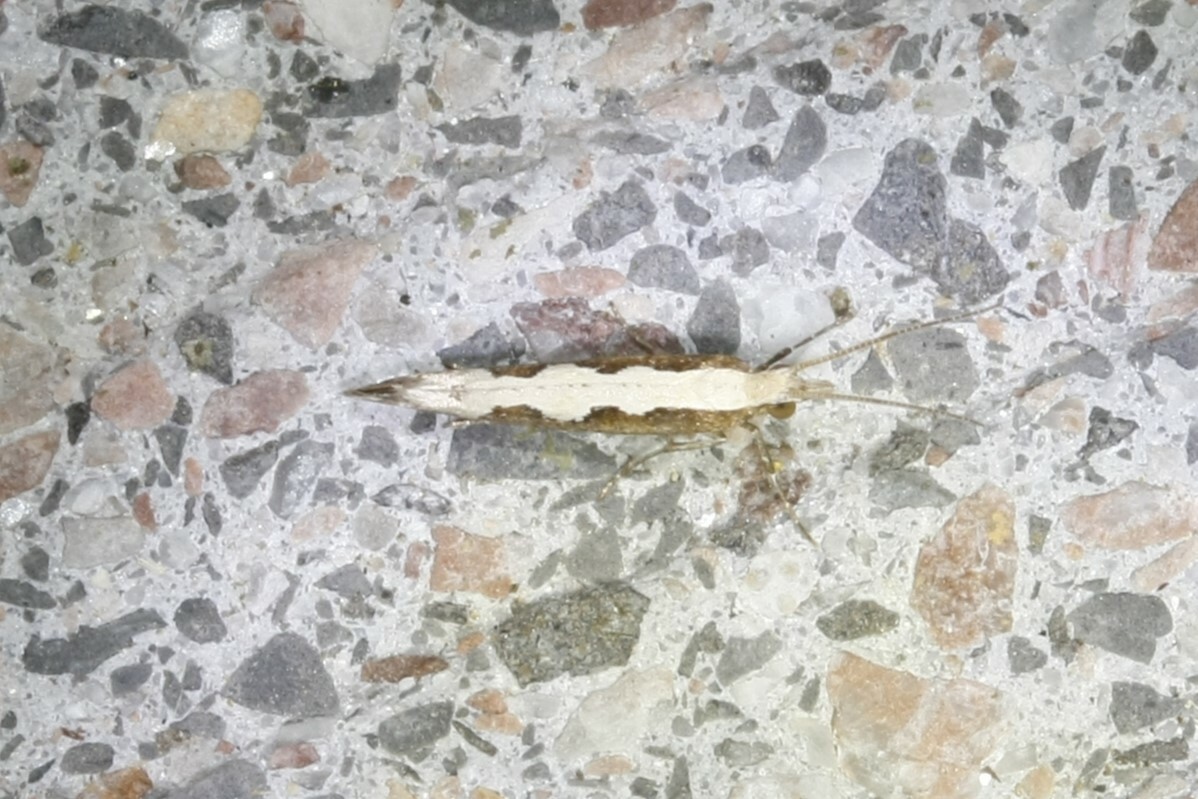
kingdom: Animalia
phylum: Arthropoda
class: Insecta
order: Lepidoptera
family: Plutellidae
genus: Plutella
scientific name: Plutella xylostella
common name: Diamond-back moth
